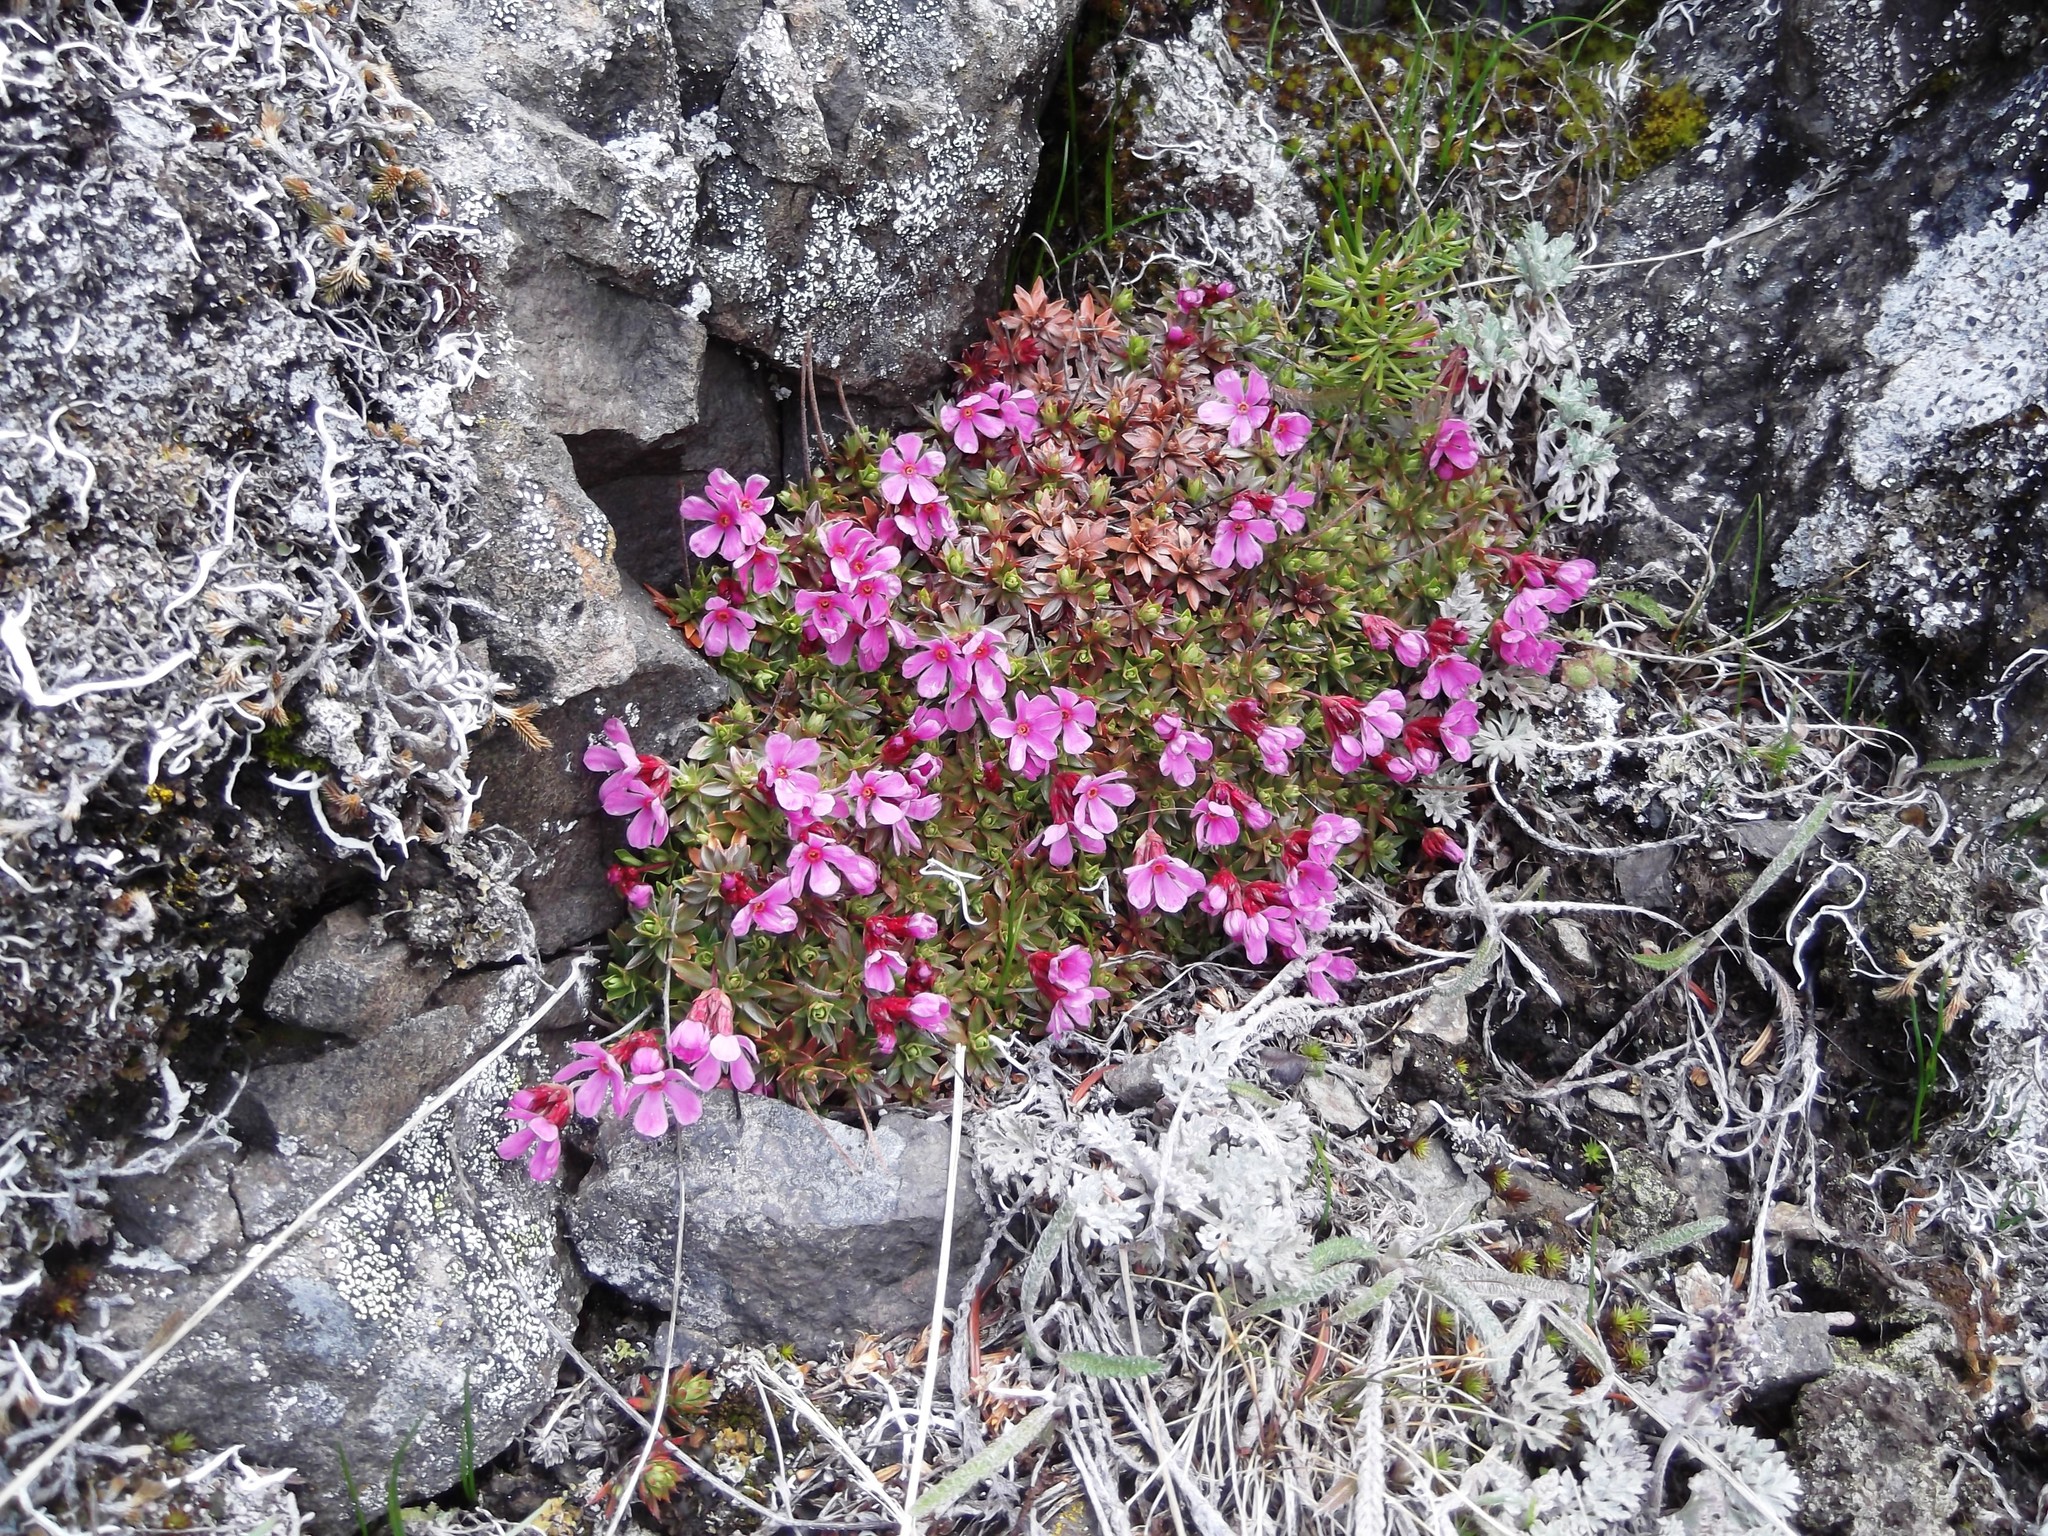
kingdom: Plantae
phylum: Tracheophyta
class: Magnoliopsida
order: Ericales
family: Primulaceae
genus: Androsace
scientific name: Androsace laevigata
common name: Cliff dwarf-primrose
